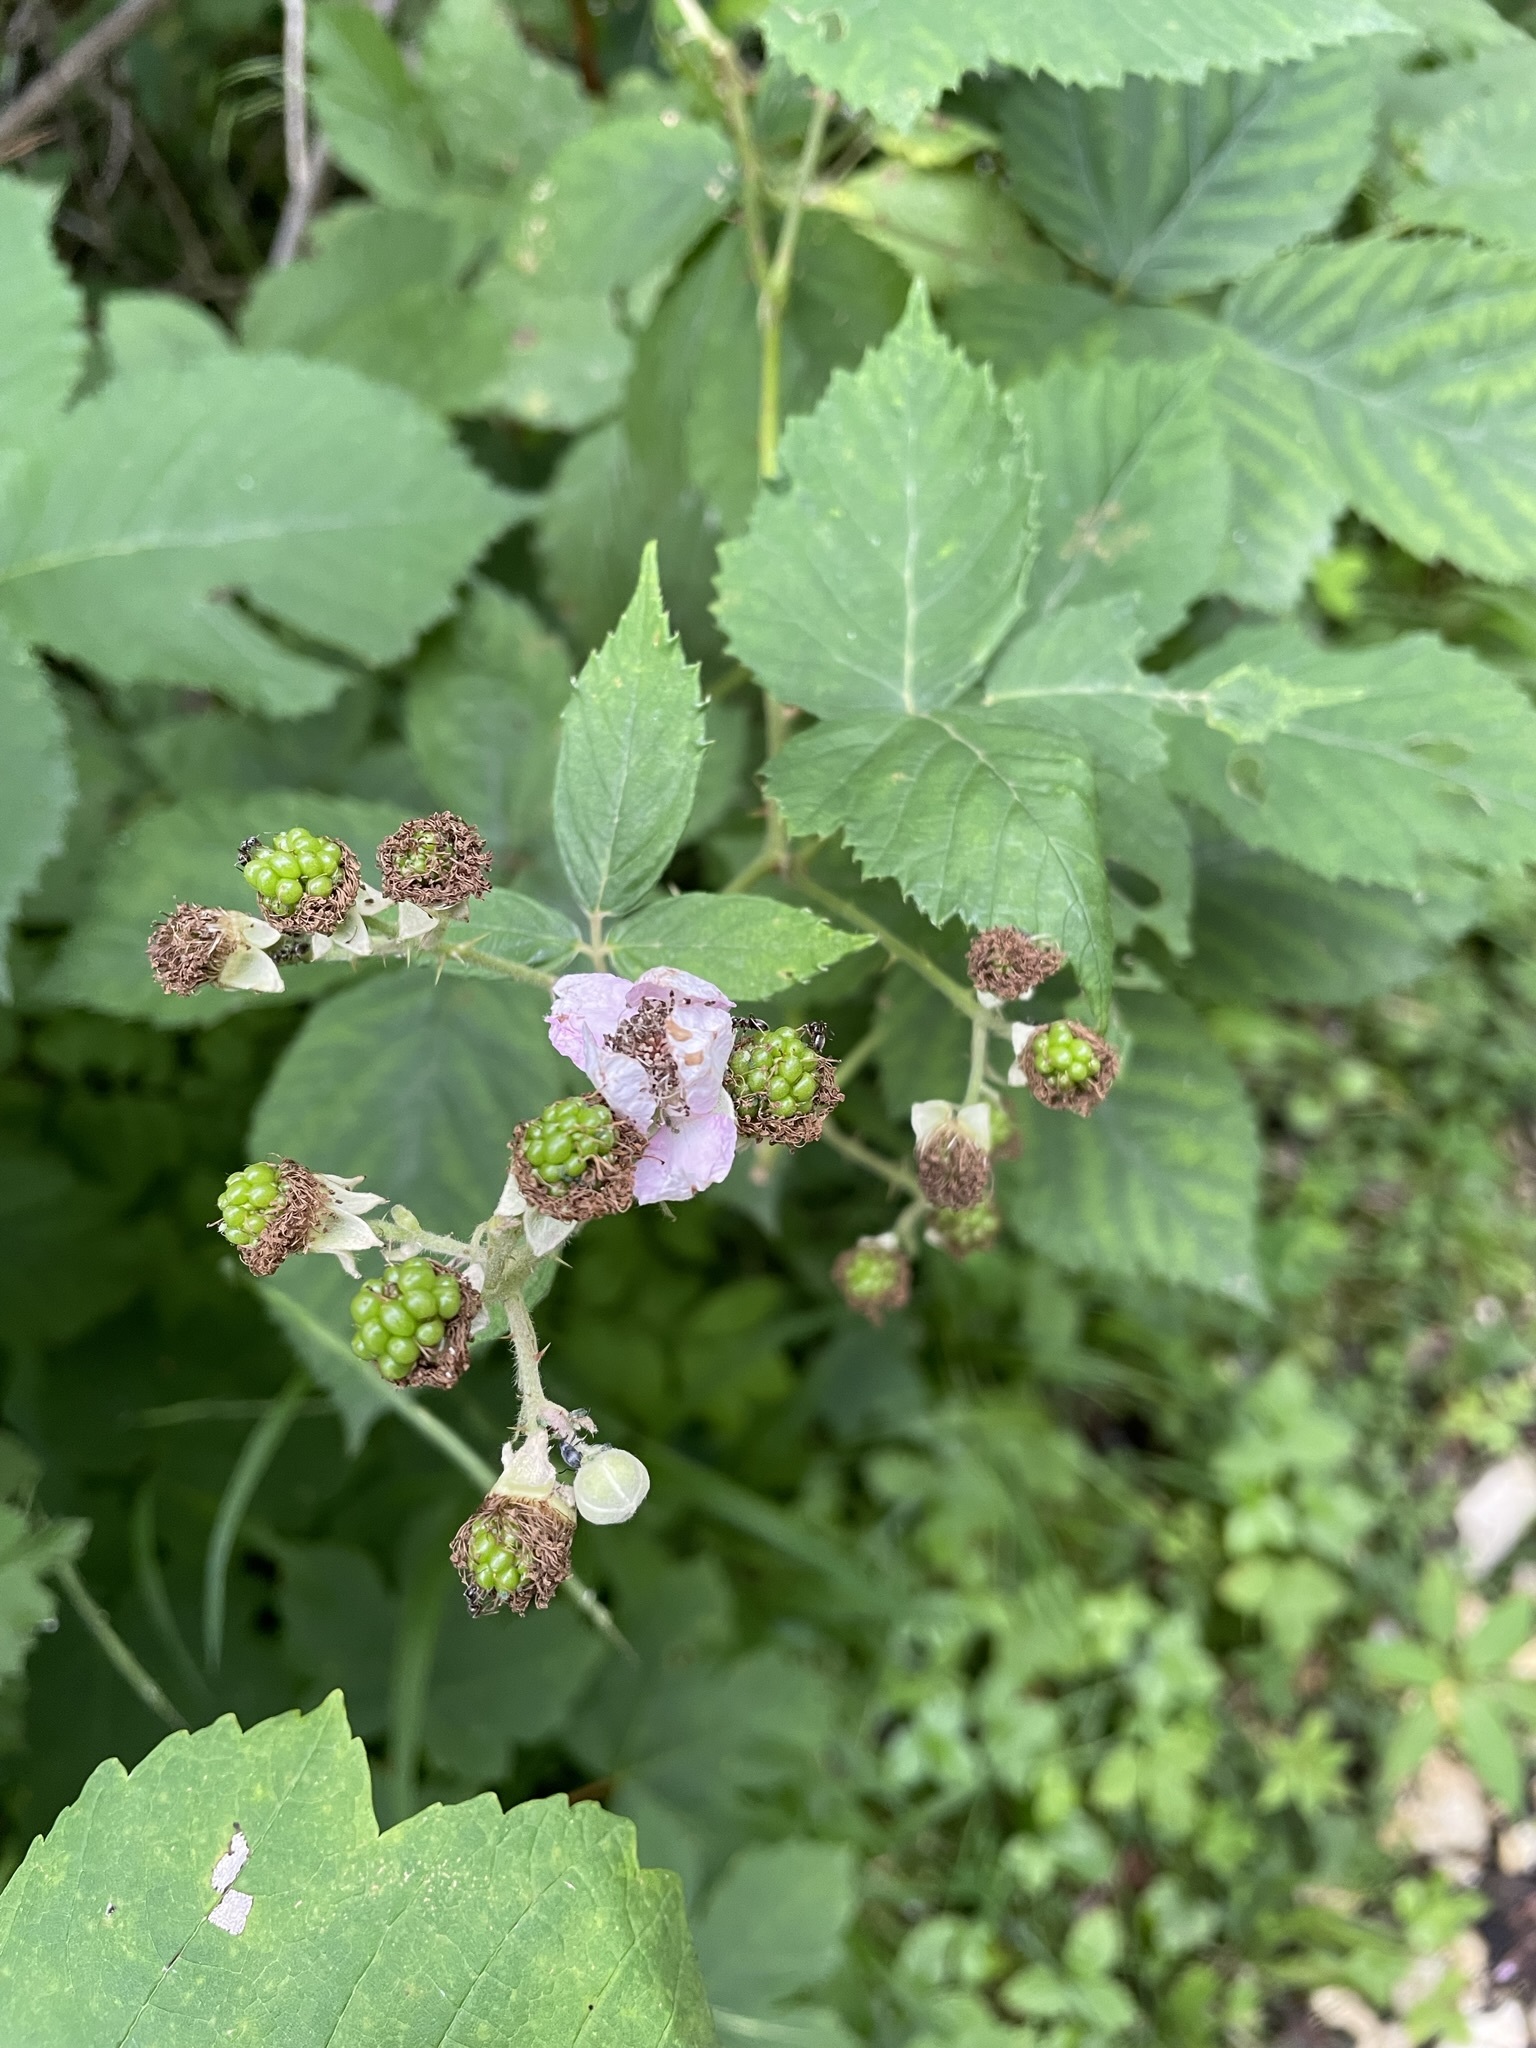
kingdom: Plantae
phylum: Tracheophyta
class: Magnoliopsida
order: Rosales
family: Rosaceae
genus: Rubus
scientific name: Rubus
